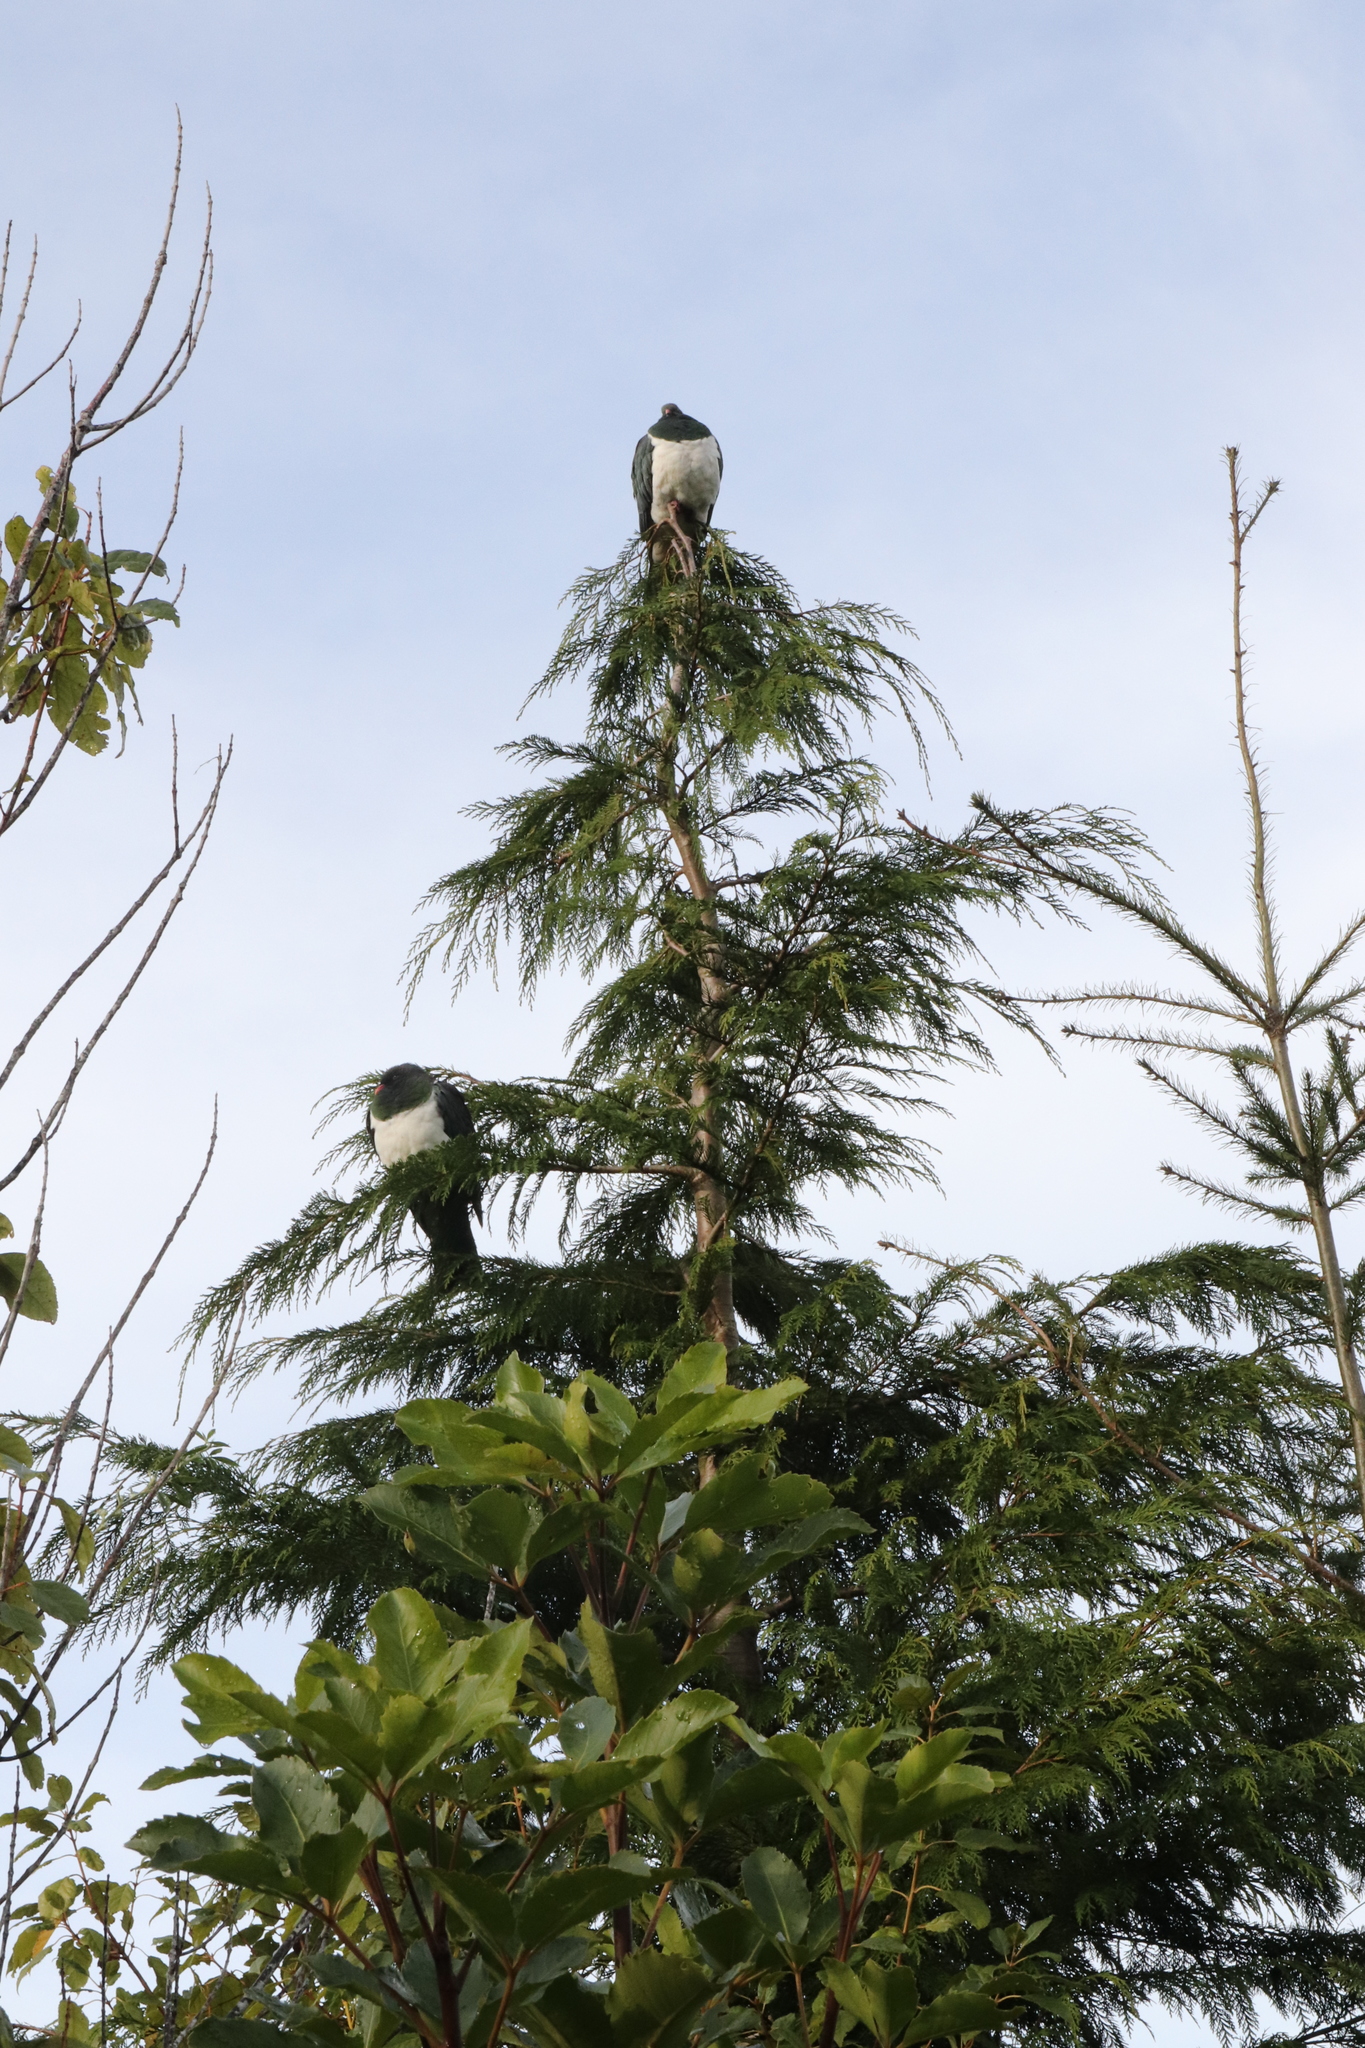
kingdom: Animalia
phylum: Chordata
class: Aves
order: Columbiformes
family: Columbidae
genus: Hemiphaga
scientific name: Hemiphaga novaeseelandiae
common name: New zealand pigeon
